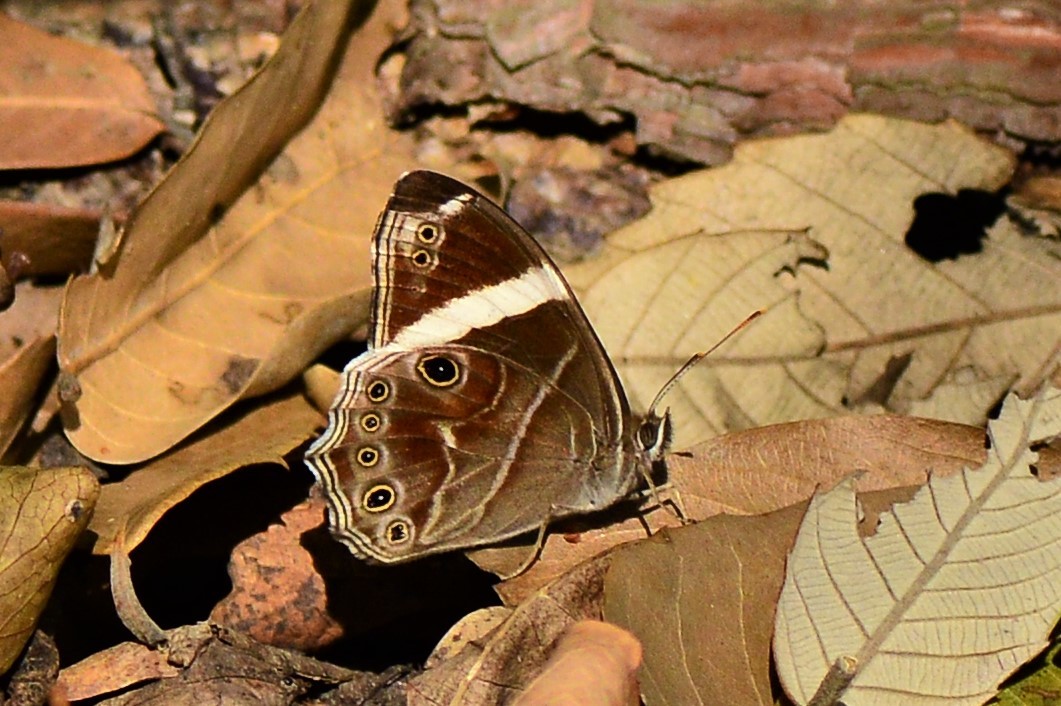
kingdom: Animalia
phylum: Arthropoda
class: Insecta
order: Lepidoptera
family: Nymphalidae
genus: Lethe
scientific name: Lethe confusa
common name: Banded treebrown
